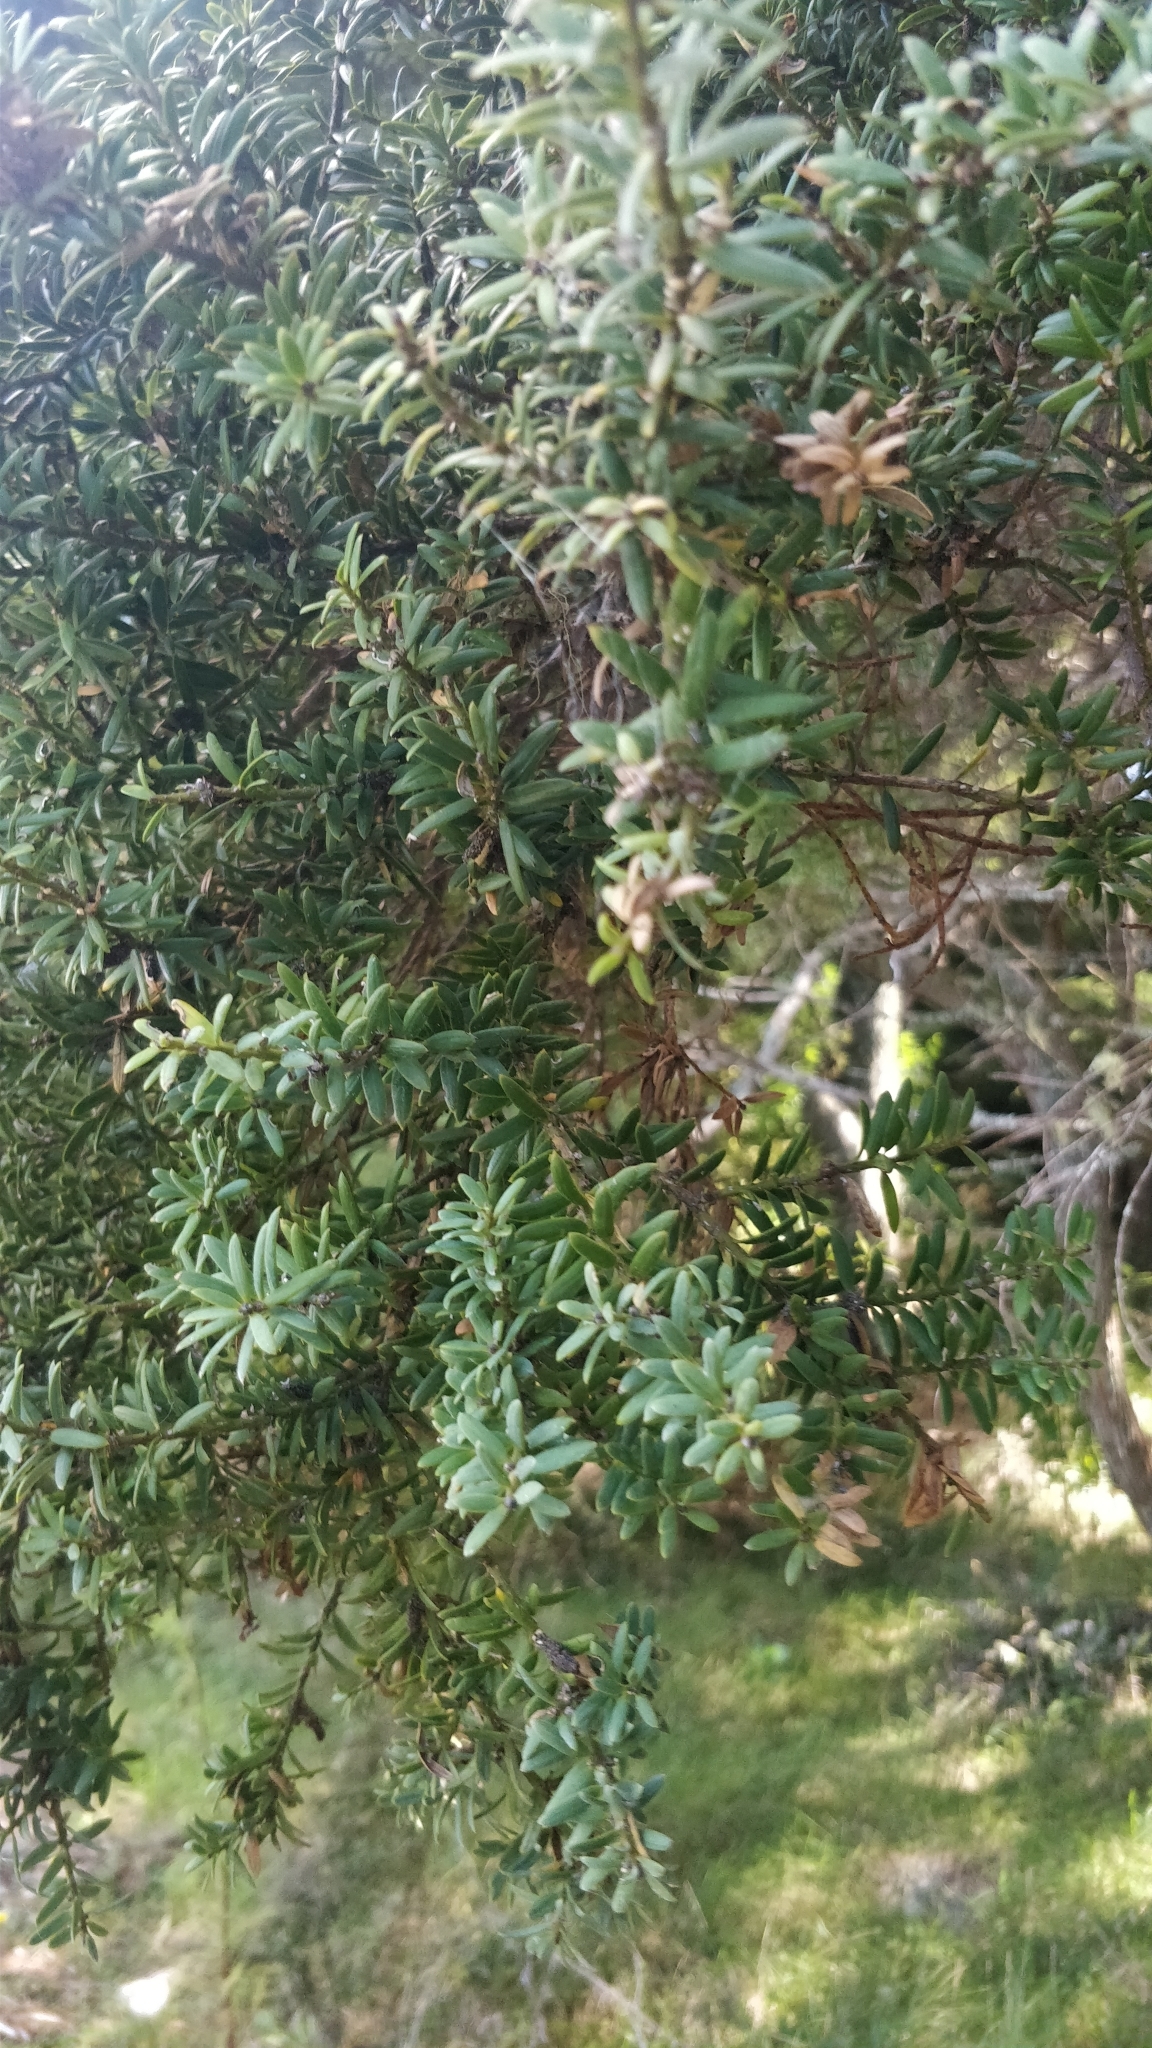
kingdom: Plantae
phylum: Tracheophyta
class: Pinopsida
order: Pinales
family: Podocarpaceae
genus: Podocarpus
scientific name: Podocarpus totara
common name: Totara
